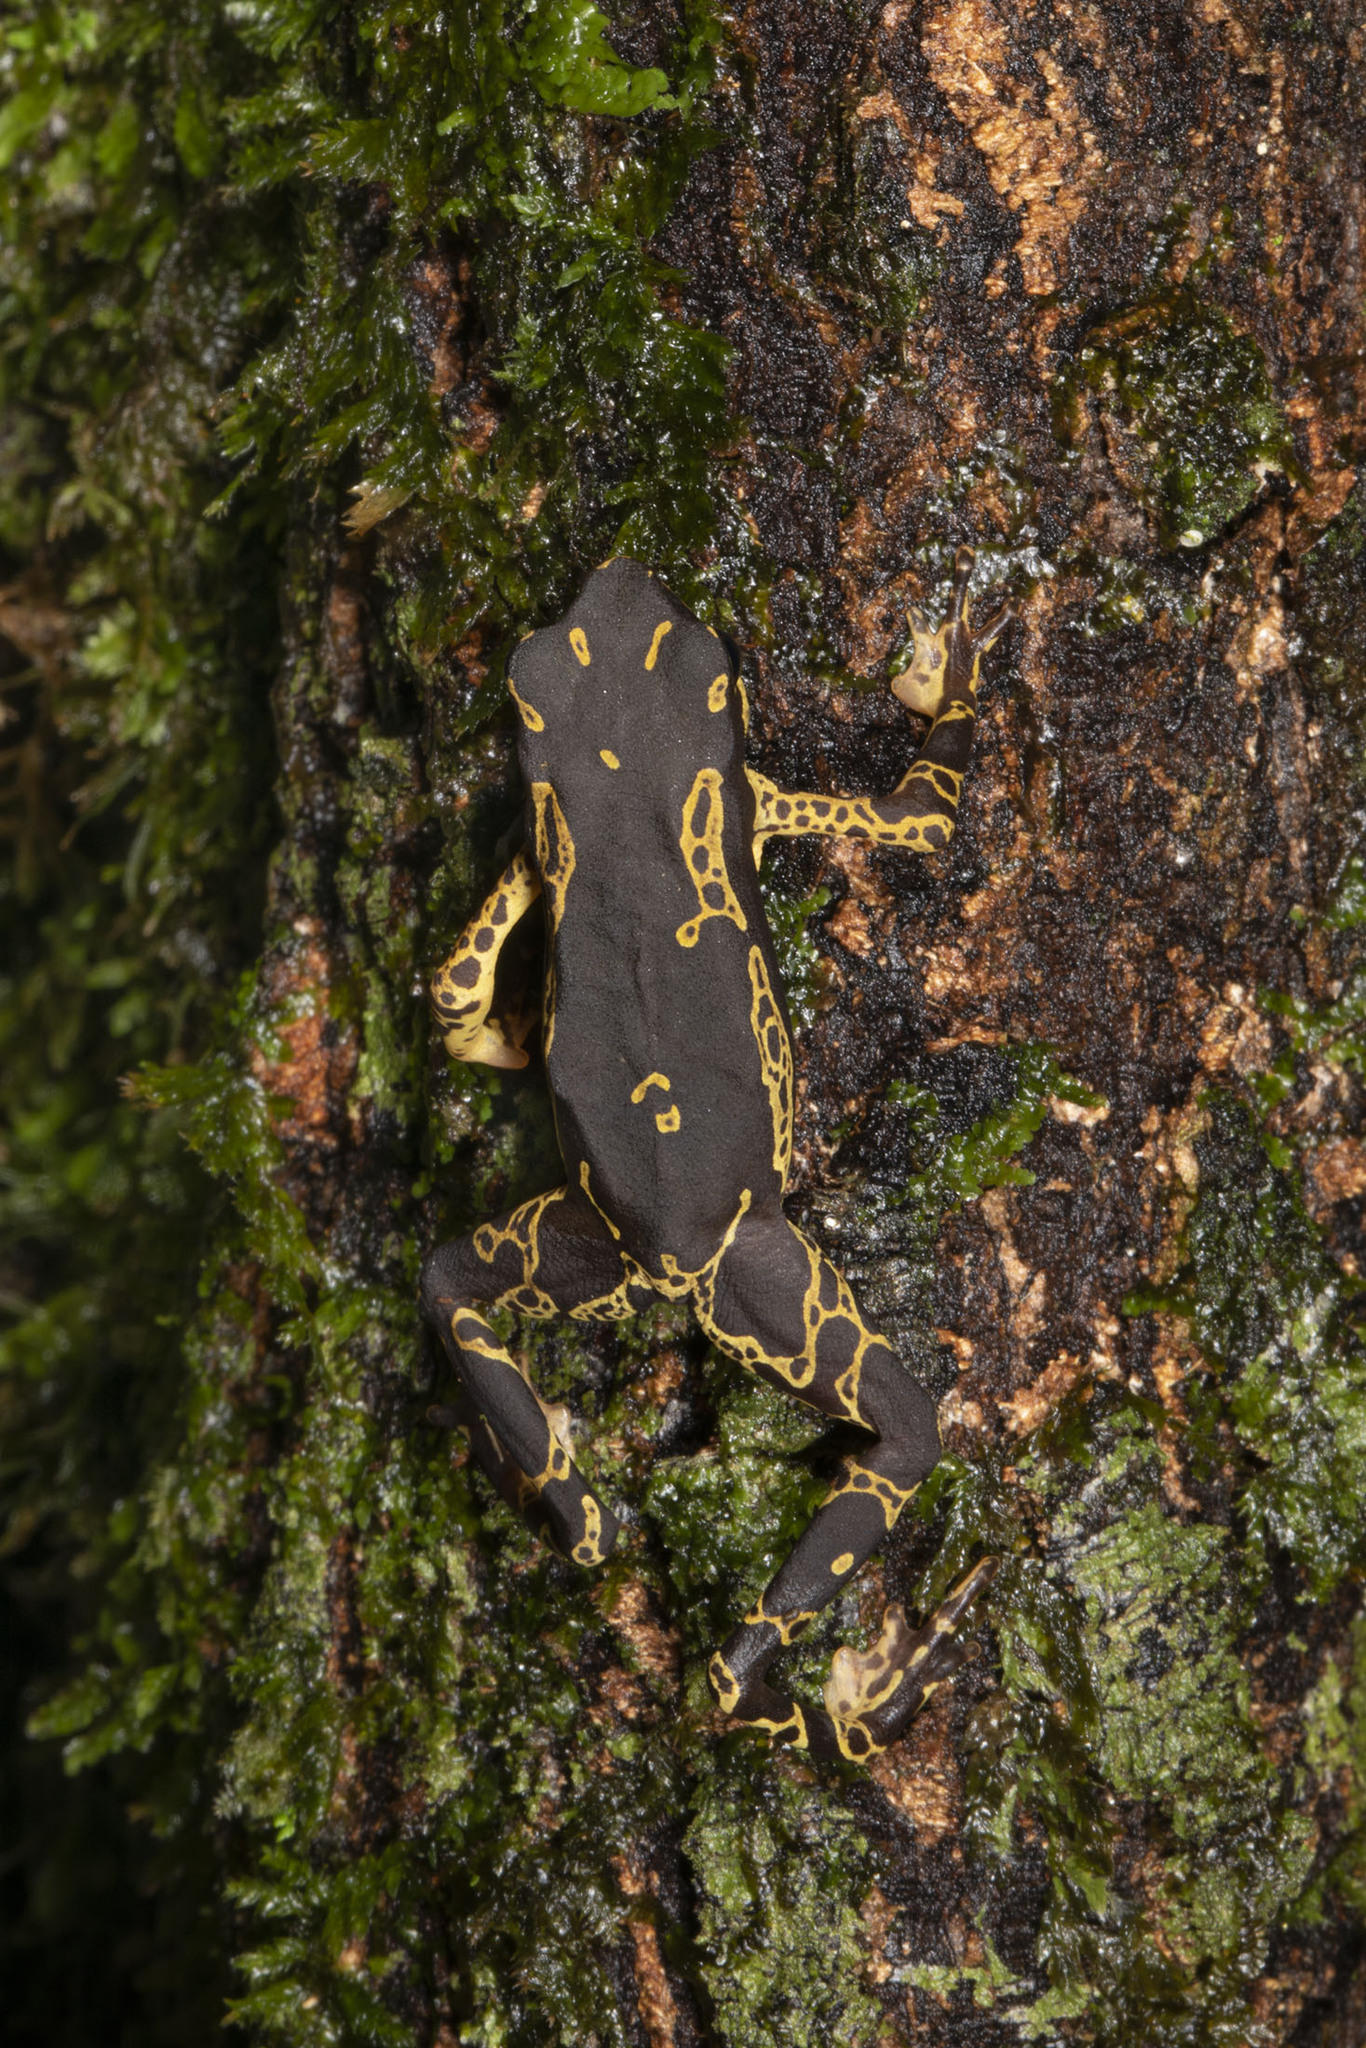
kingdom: Animalia
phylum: Chordata
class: Amphibia
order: Anura
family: Bufonidae
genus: Atelopus
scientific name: Atelopus hoogmoedi
